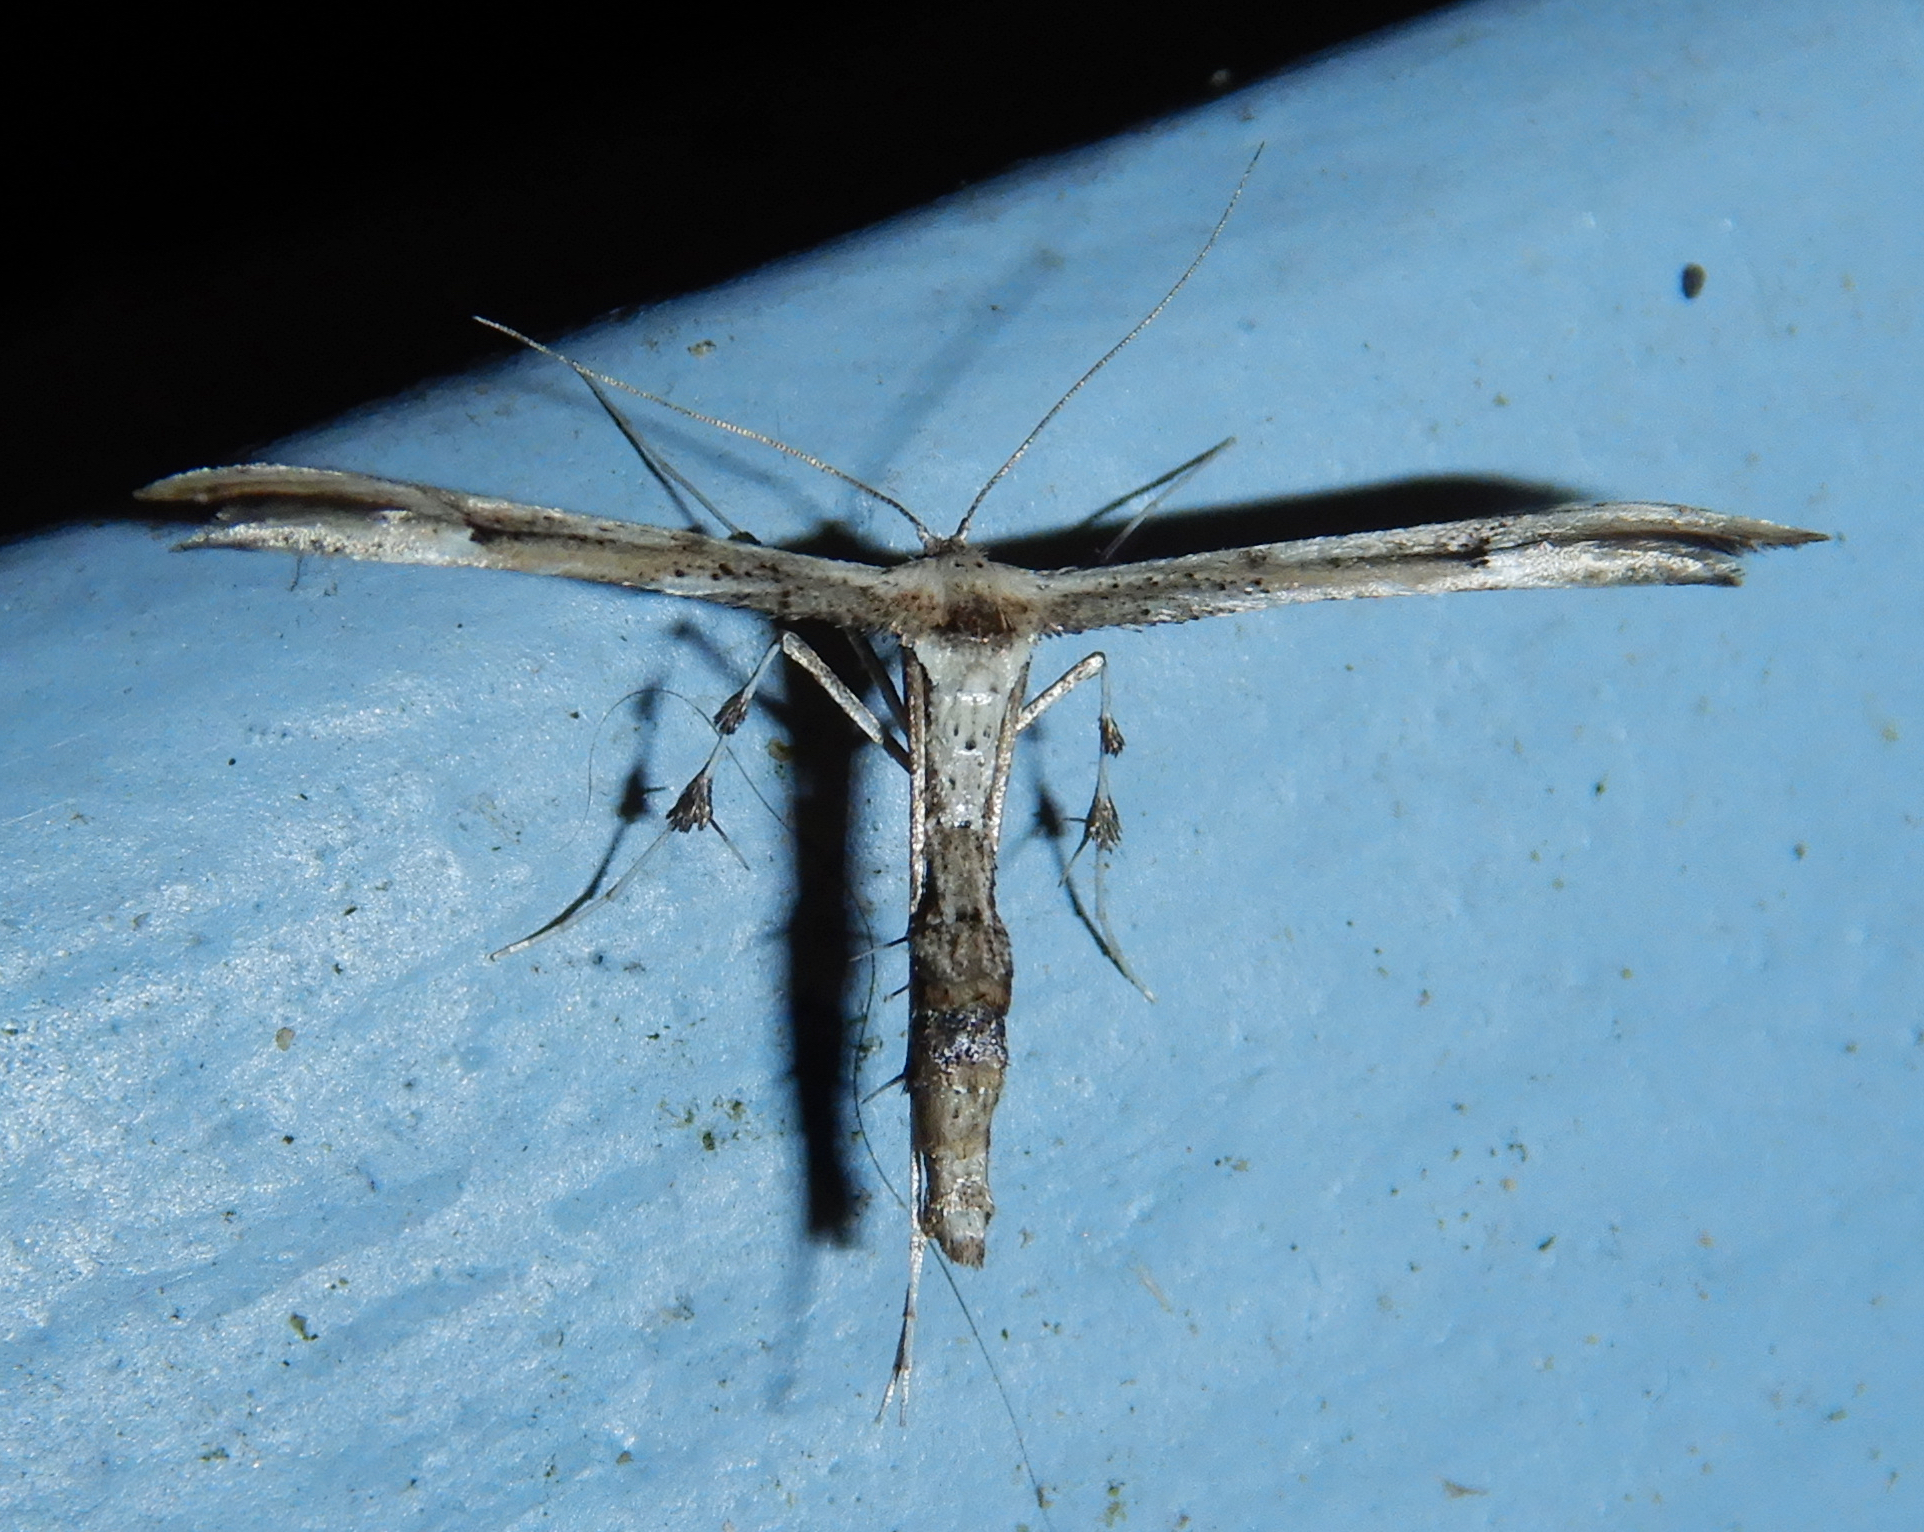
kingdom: Animalia
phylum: Arthropoda
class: Insecta
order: Lepidoptera
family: Pterophoridae
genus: Oidaematophorus
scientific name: Oidaematophorus eupatorii
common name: Eupatorium plume moth
